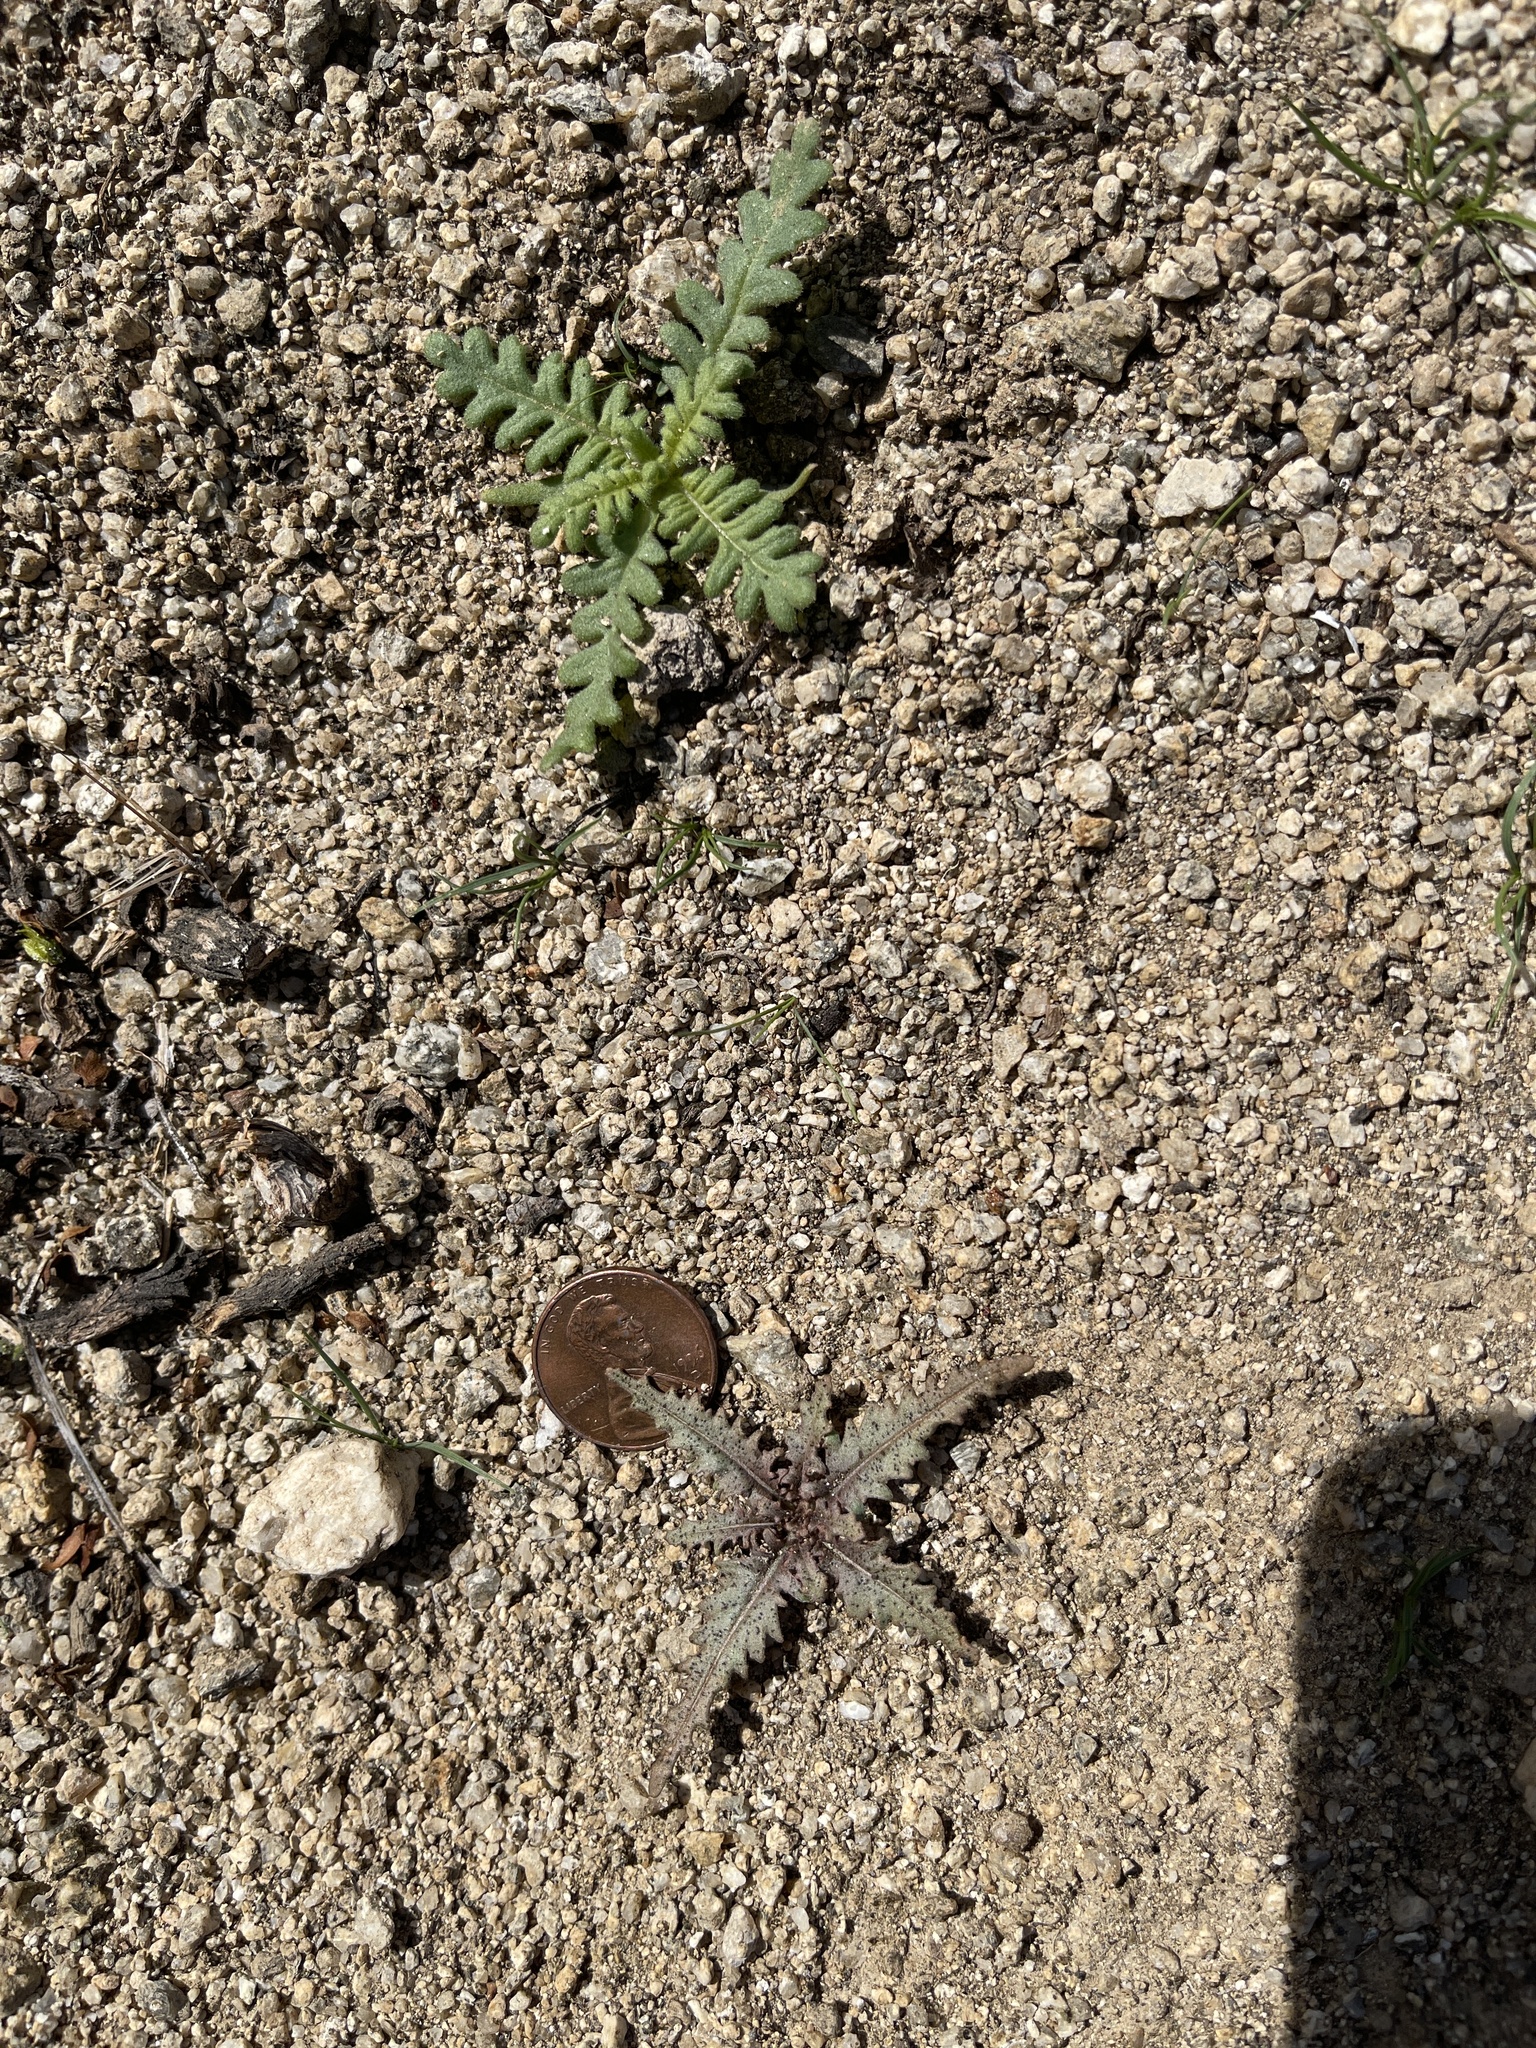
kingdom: Plantae
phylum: Tracheophyta
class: Magnoliopsida
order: Myrtales
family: Onagraceae
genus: Eulobus
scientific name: Eulobus californicus
